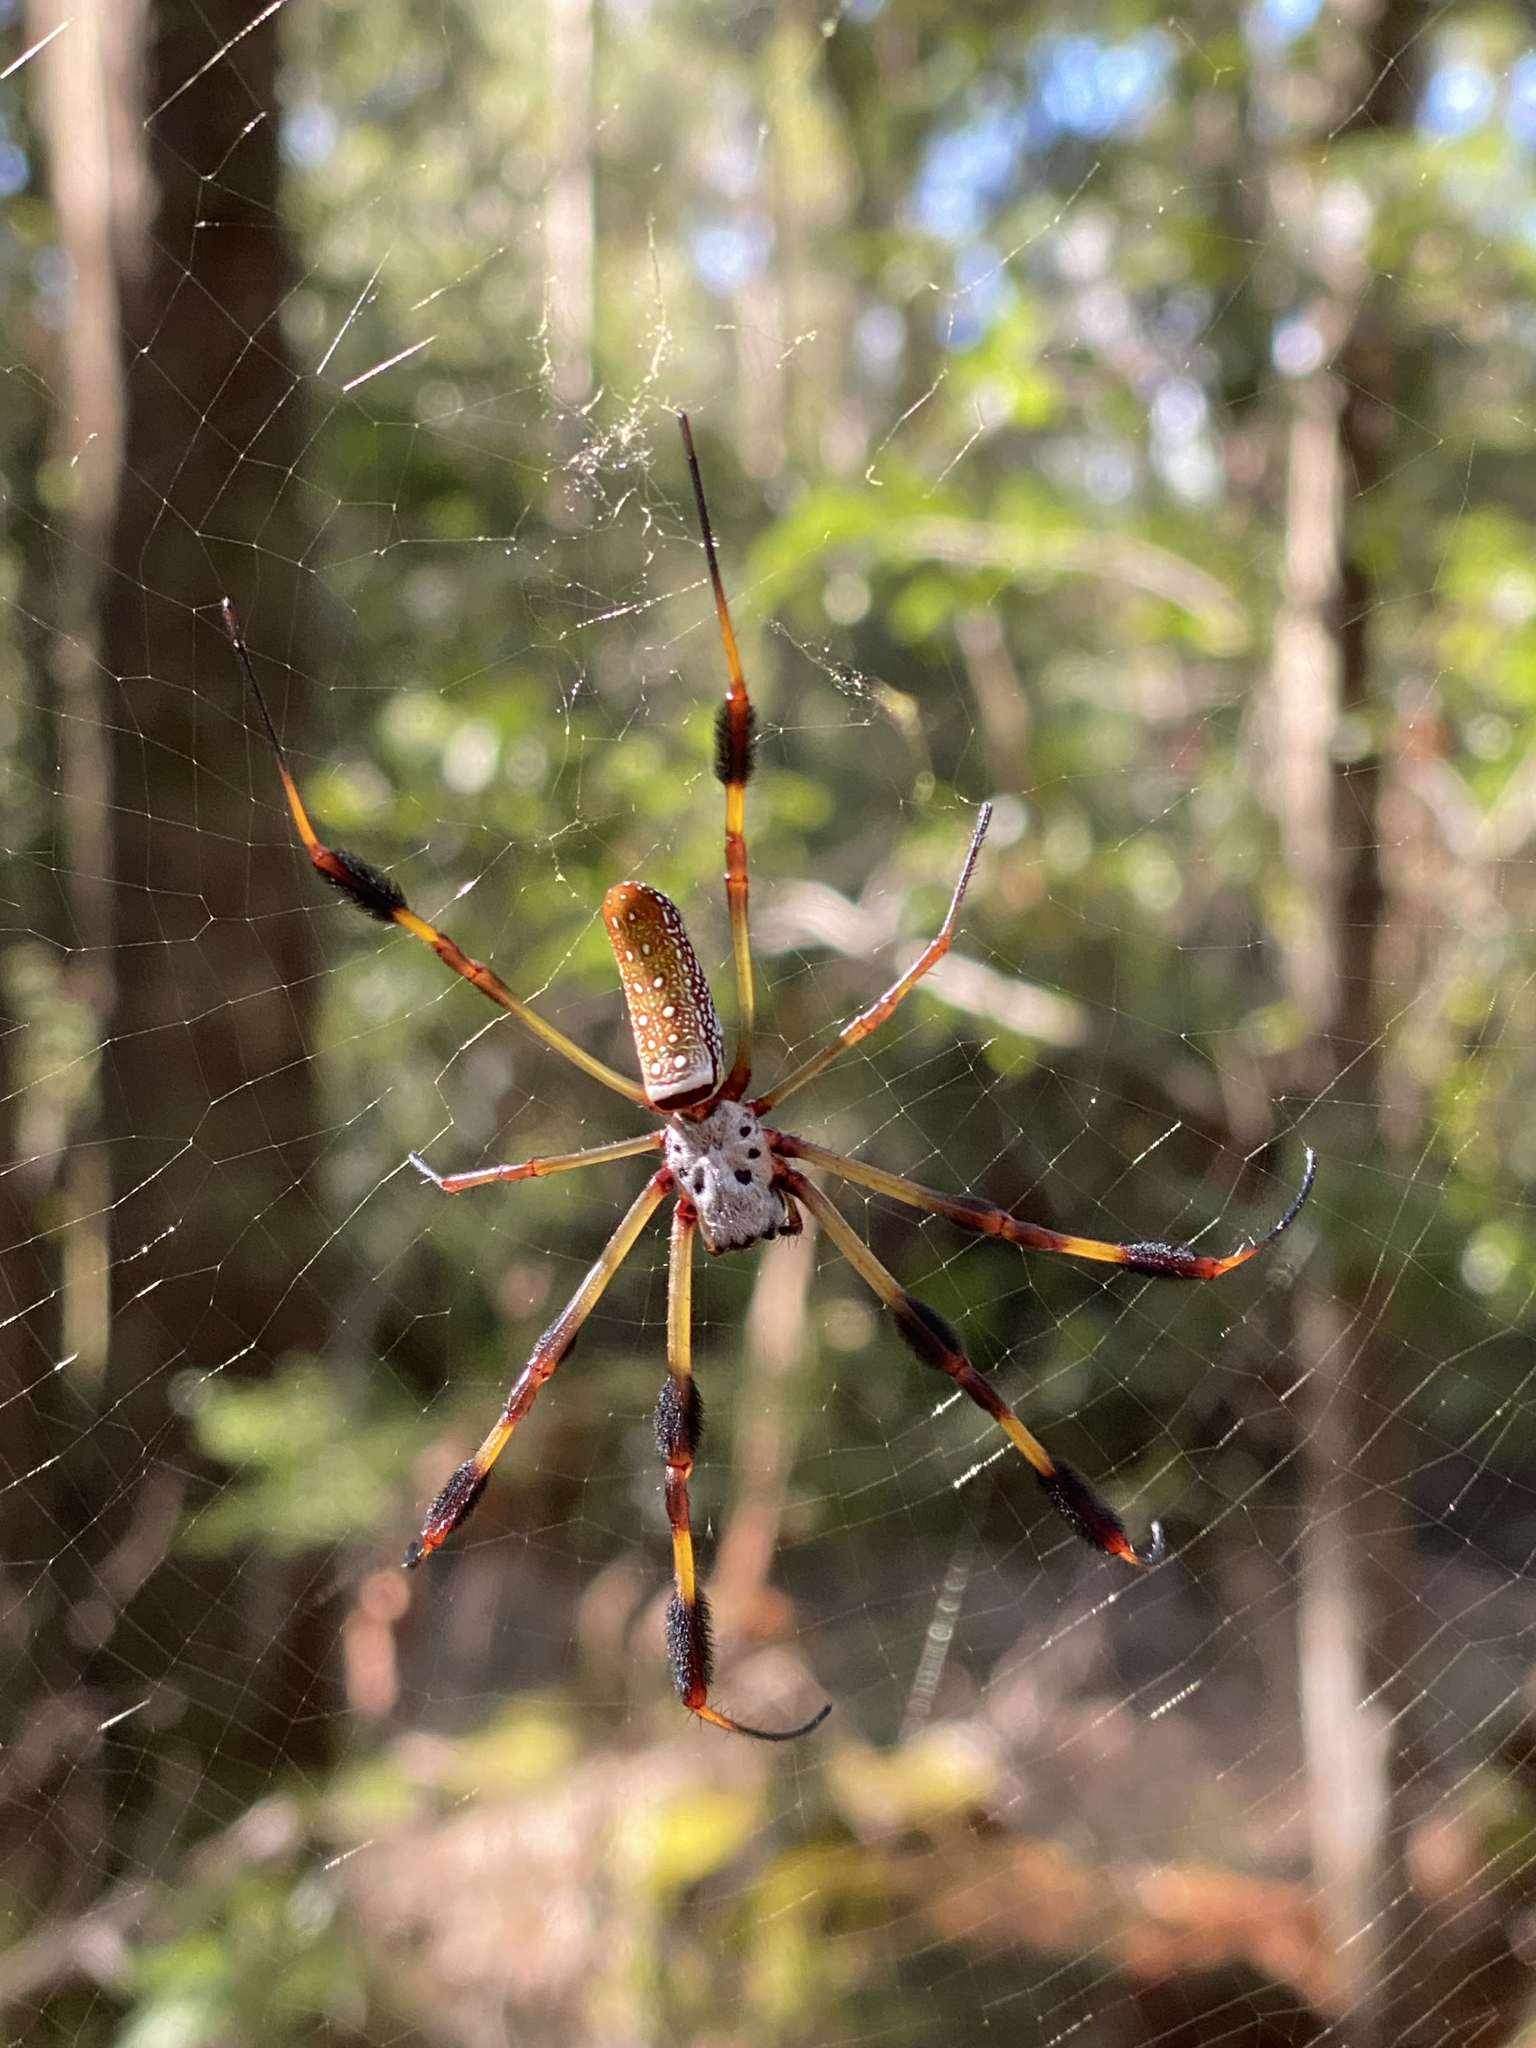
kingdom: Animalia
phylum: Arthropoda
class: Arachnida
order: Araneae
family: Araneidae
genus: Trichonephila
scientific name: Trichonephila clavipes
